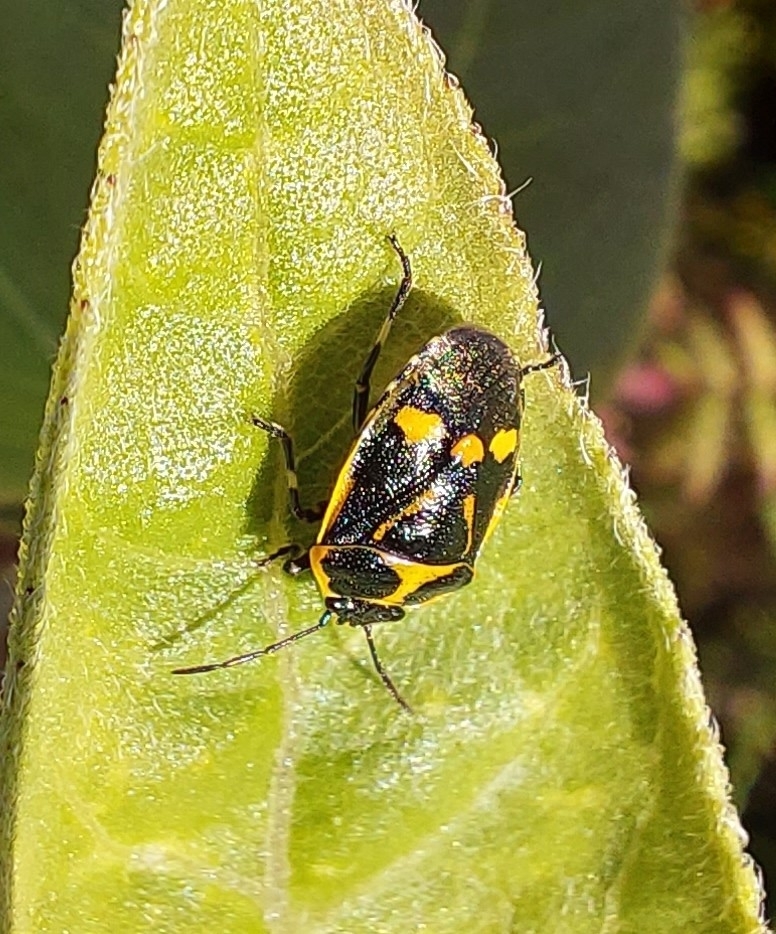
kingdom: Animalia
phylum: Arthropoda
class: Insecta
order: Hemiptera
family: Pentatomidae
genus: Eurydema
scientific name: Eurydema oleracea
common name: Cabbage bug
